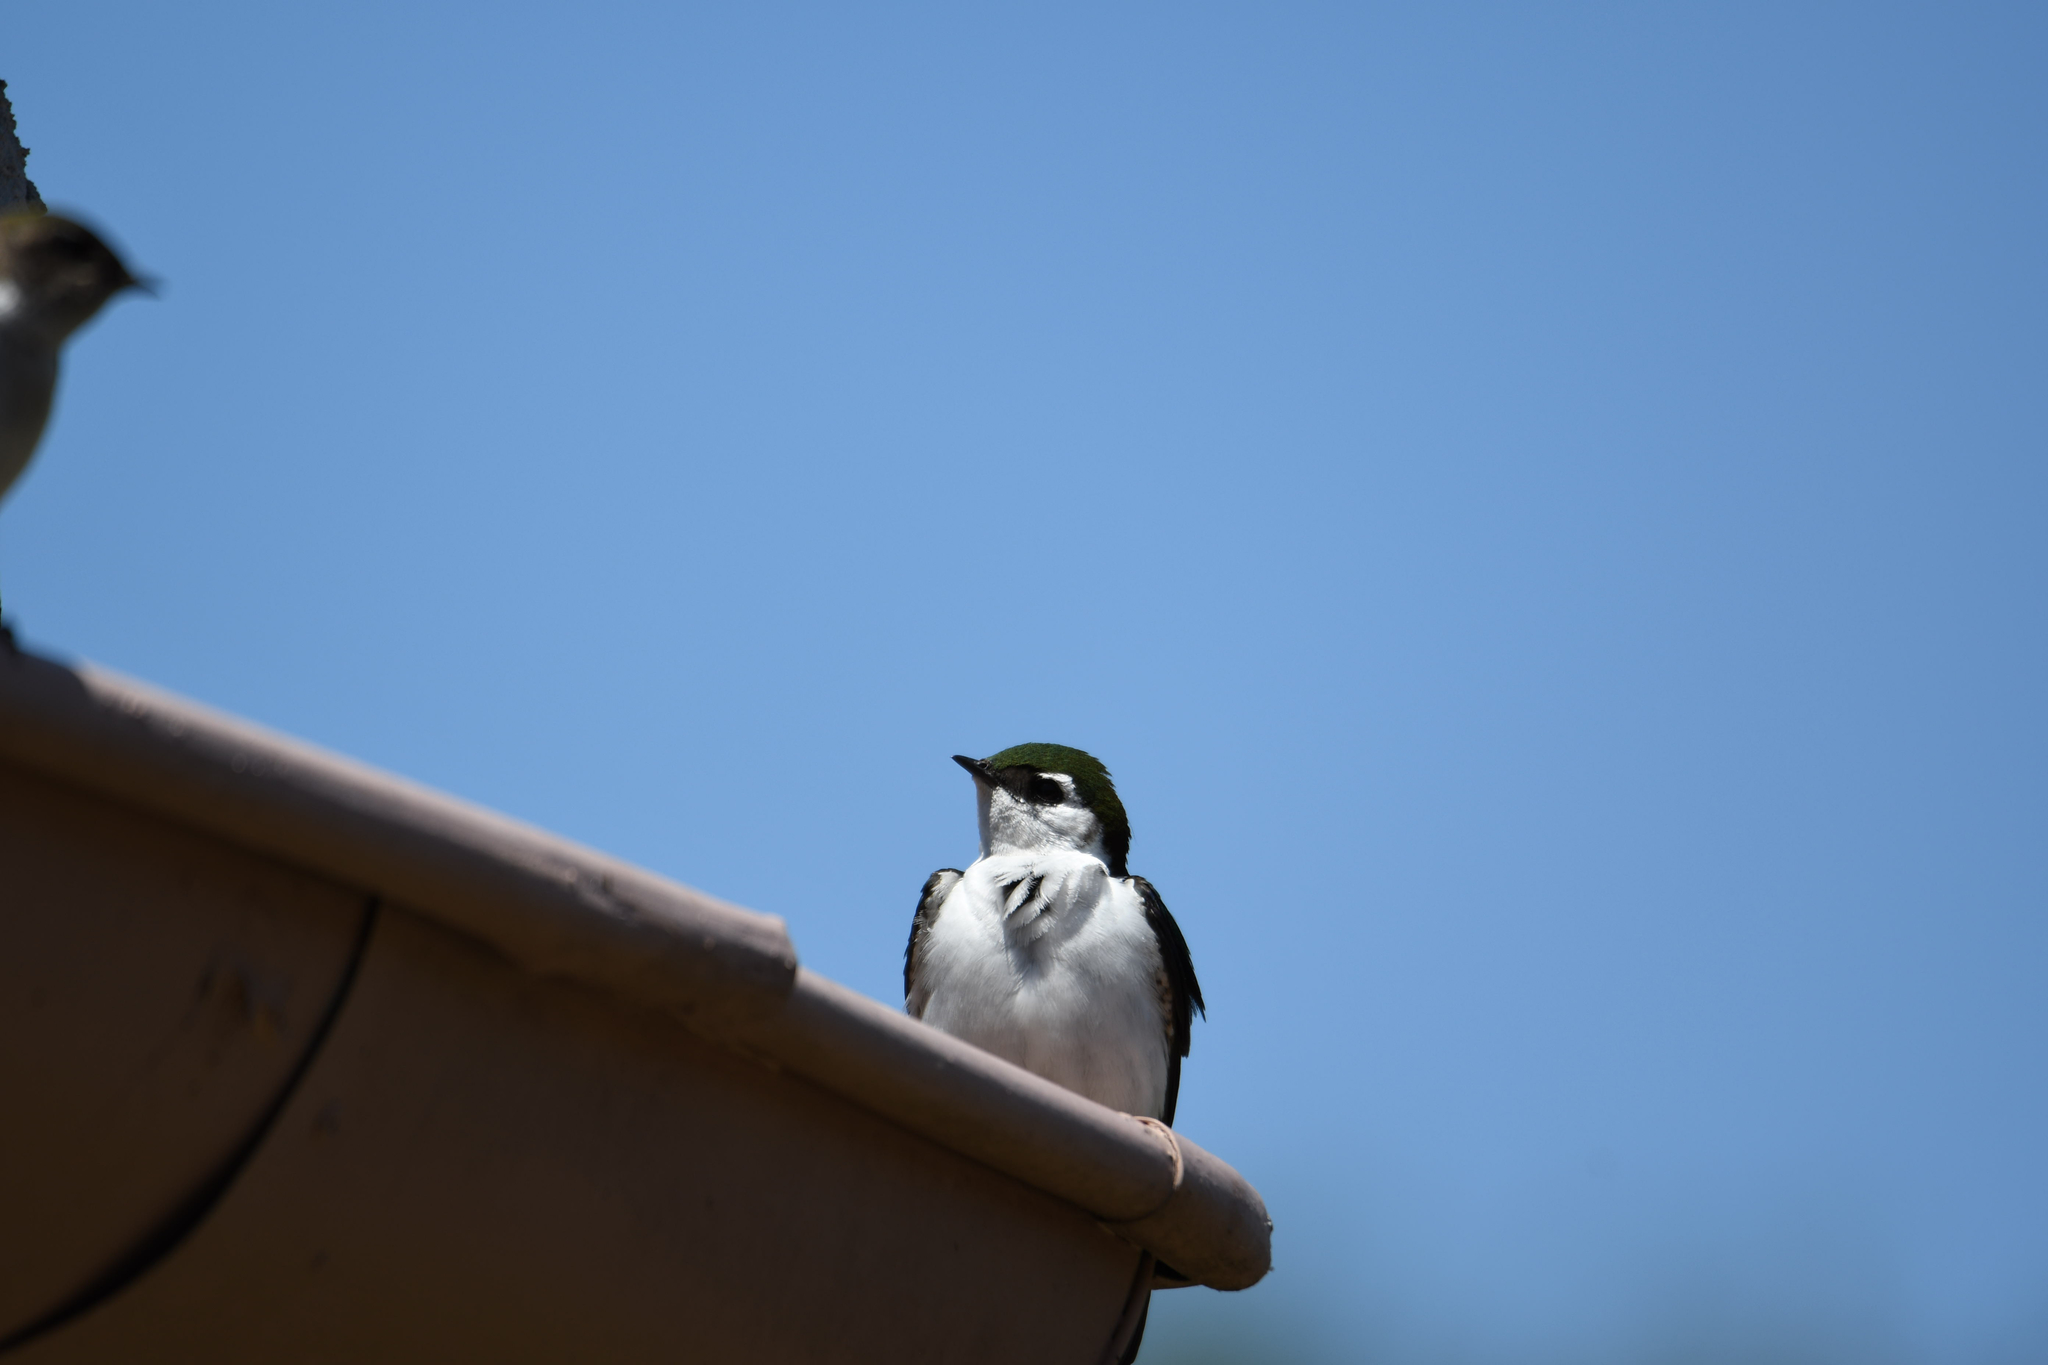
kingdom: Animalia
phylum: Chordata
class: Aves
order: Passeriformes
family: Hirundinidae
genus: Tachycineta
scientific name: Tachycineta thalassina
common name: Violet-green swallow
